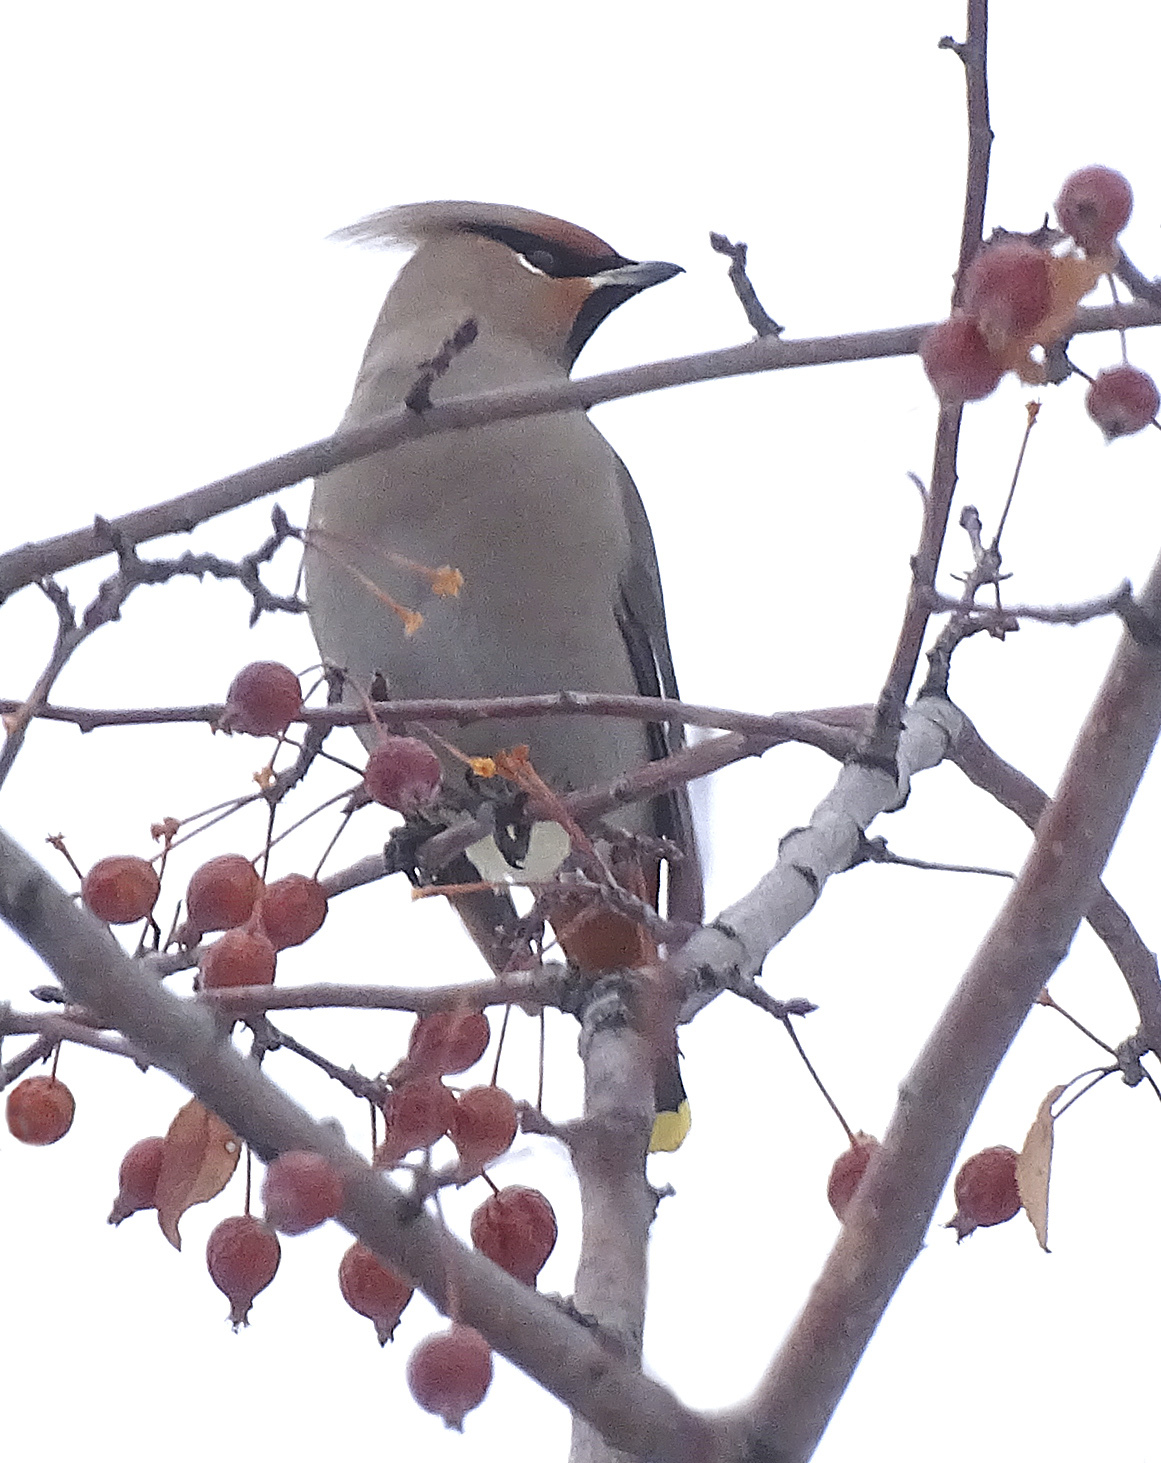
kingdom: Animalia
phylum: Chordata
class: Aves
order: Passeriformes
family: Bombycillidae
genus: Bombycilla
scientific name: Bombycilla garrulus
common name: Bohemian waxwing
